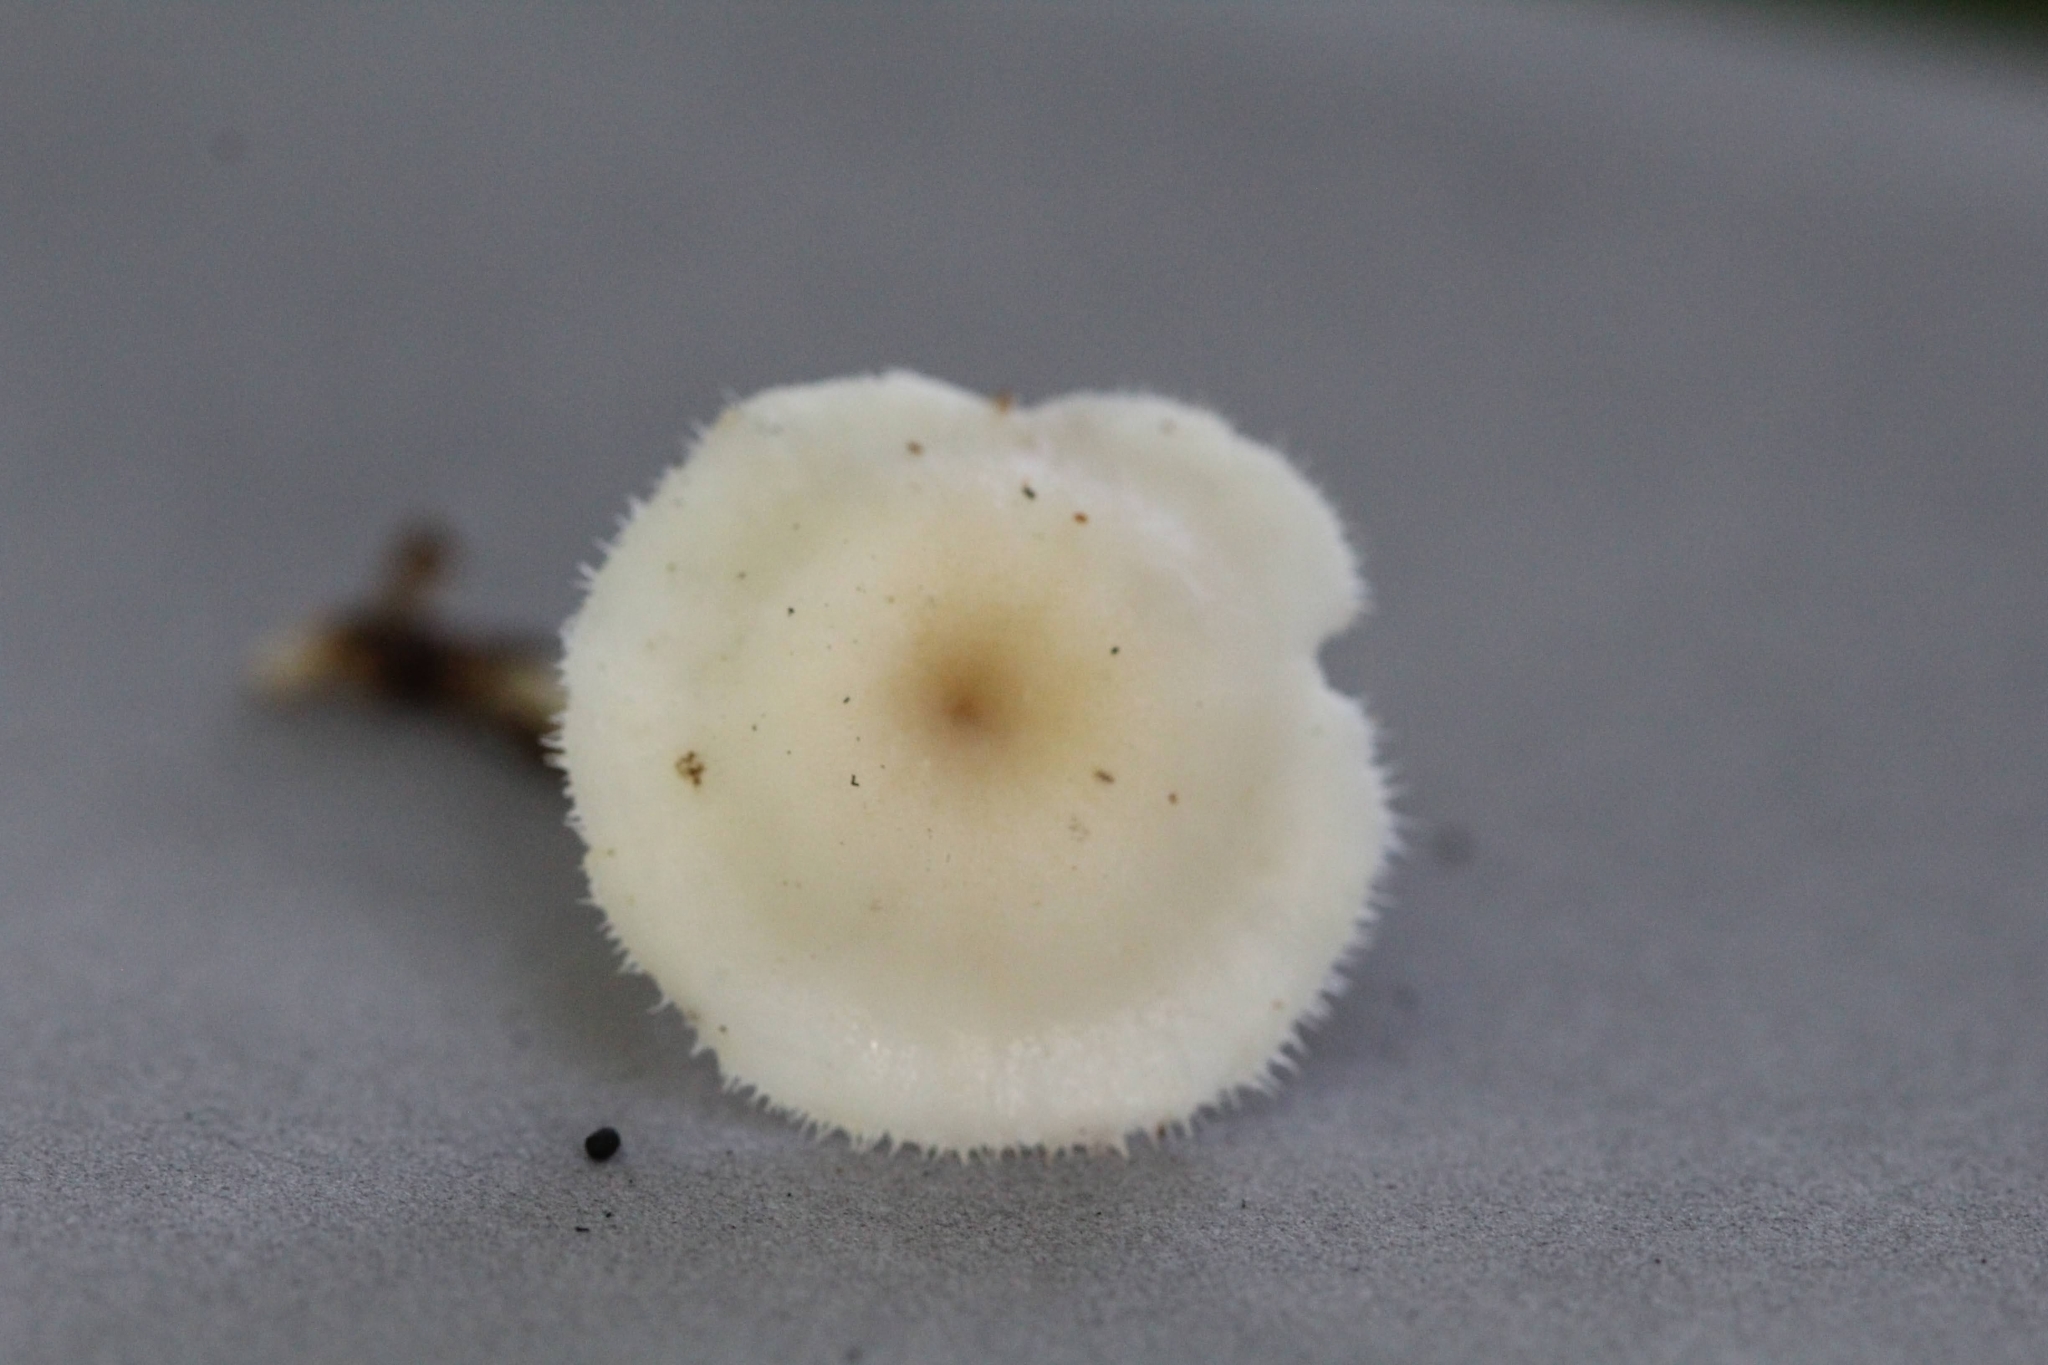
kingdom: Fungi
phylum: Basidiomycota
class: Agaricomycetes
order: Polyporales
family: Polyporaceae
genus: Lentinus
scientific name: Lentinus flexipes
